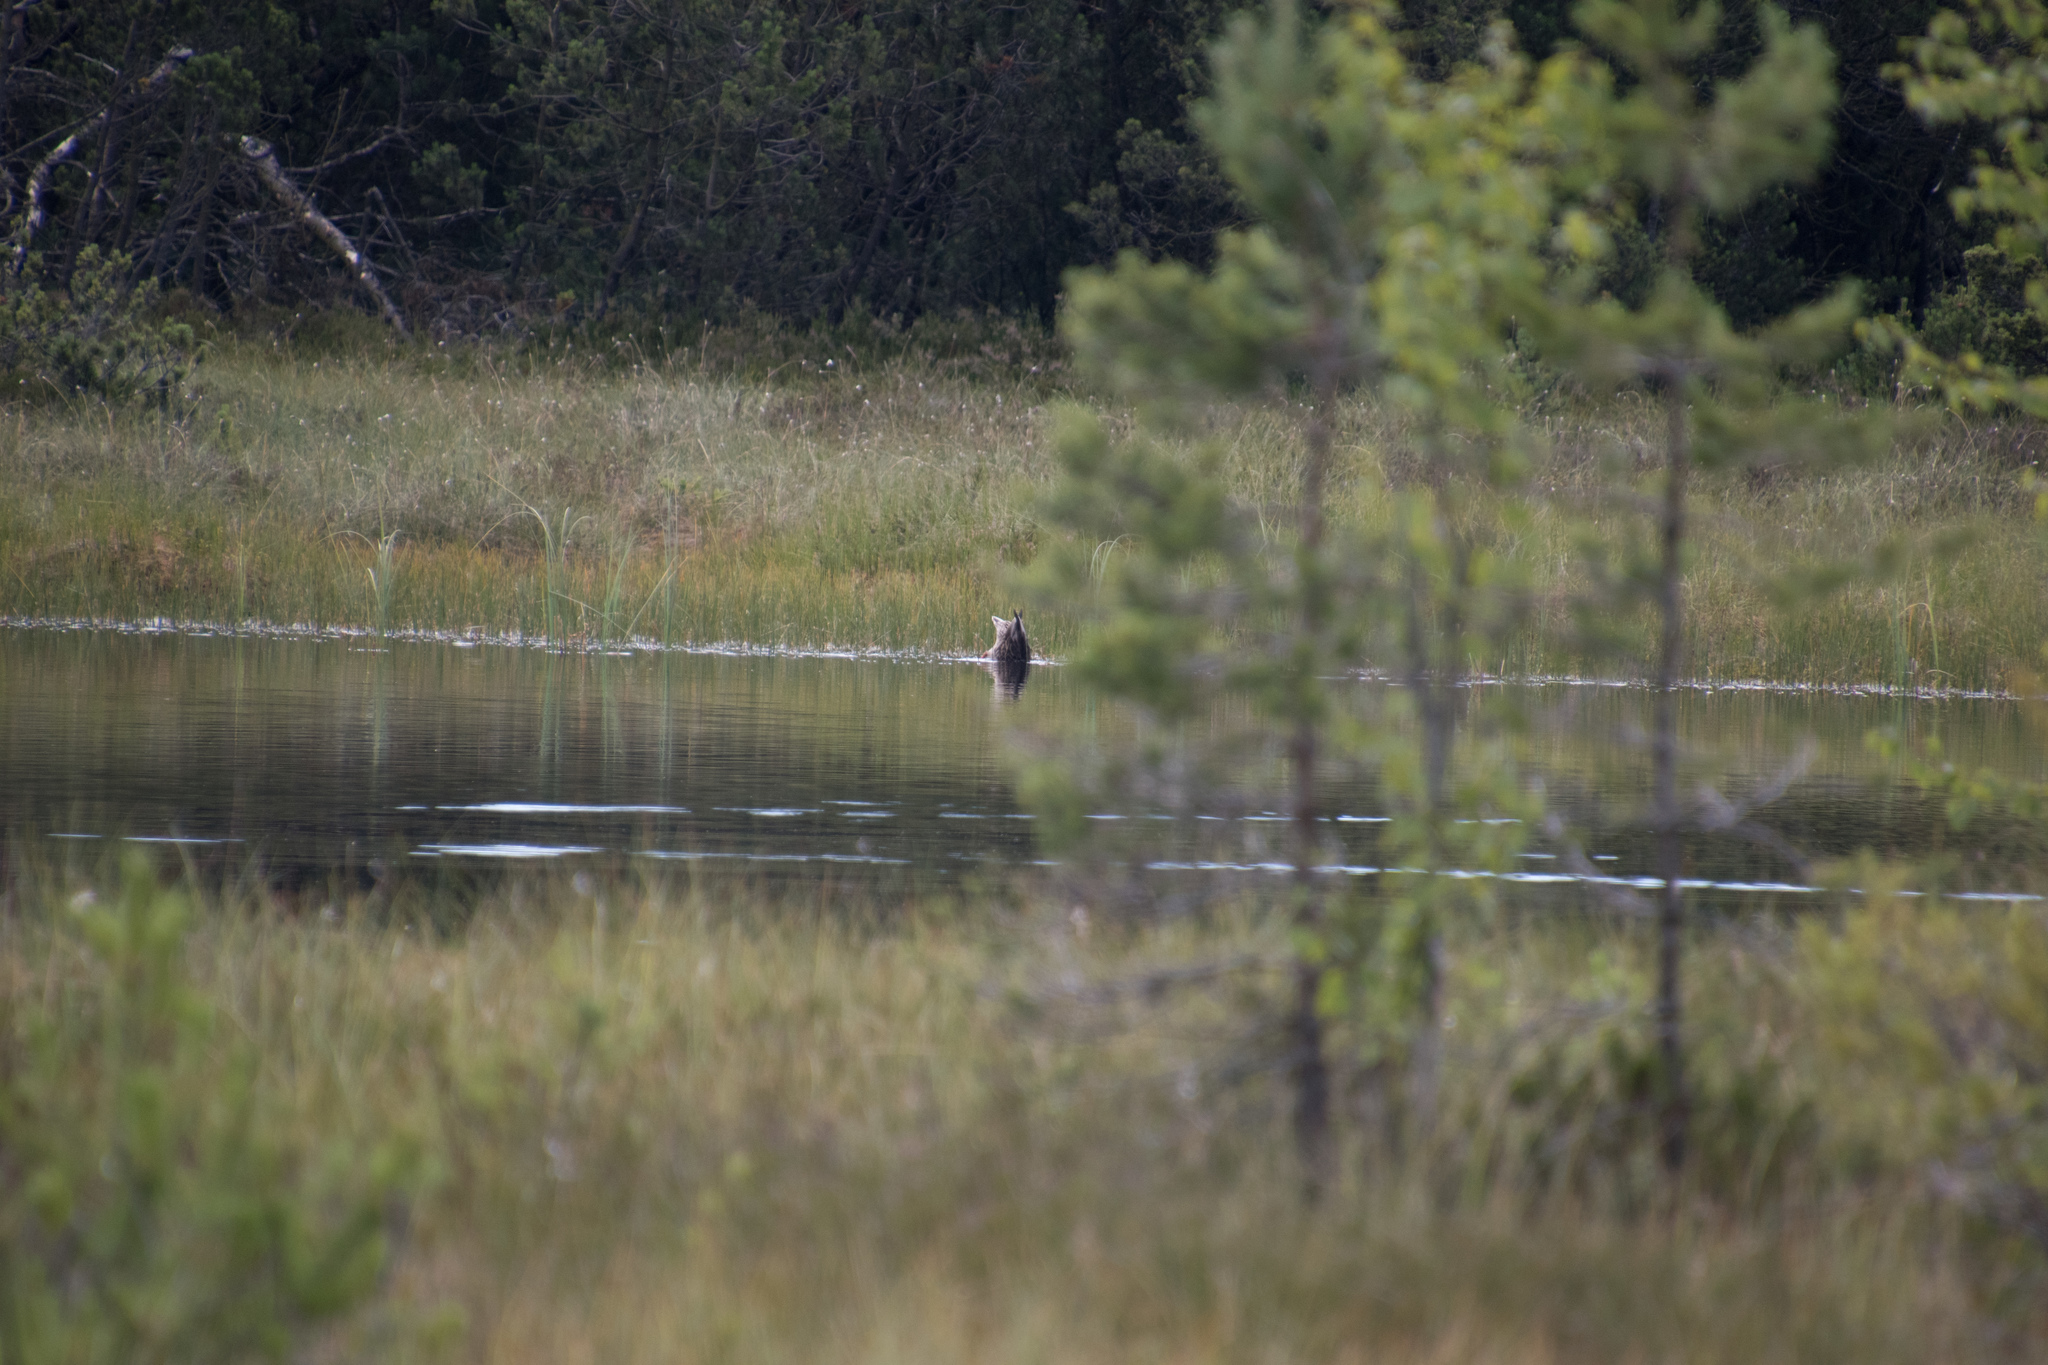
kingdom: Animalia
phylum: Chordata
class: Aves
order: Anseriformes
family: Anatidae
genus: Anas
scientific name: Anas platyrhynchos
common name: Mallard
